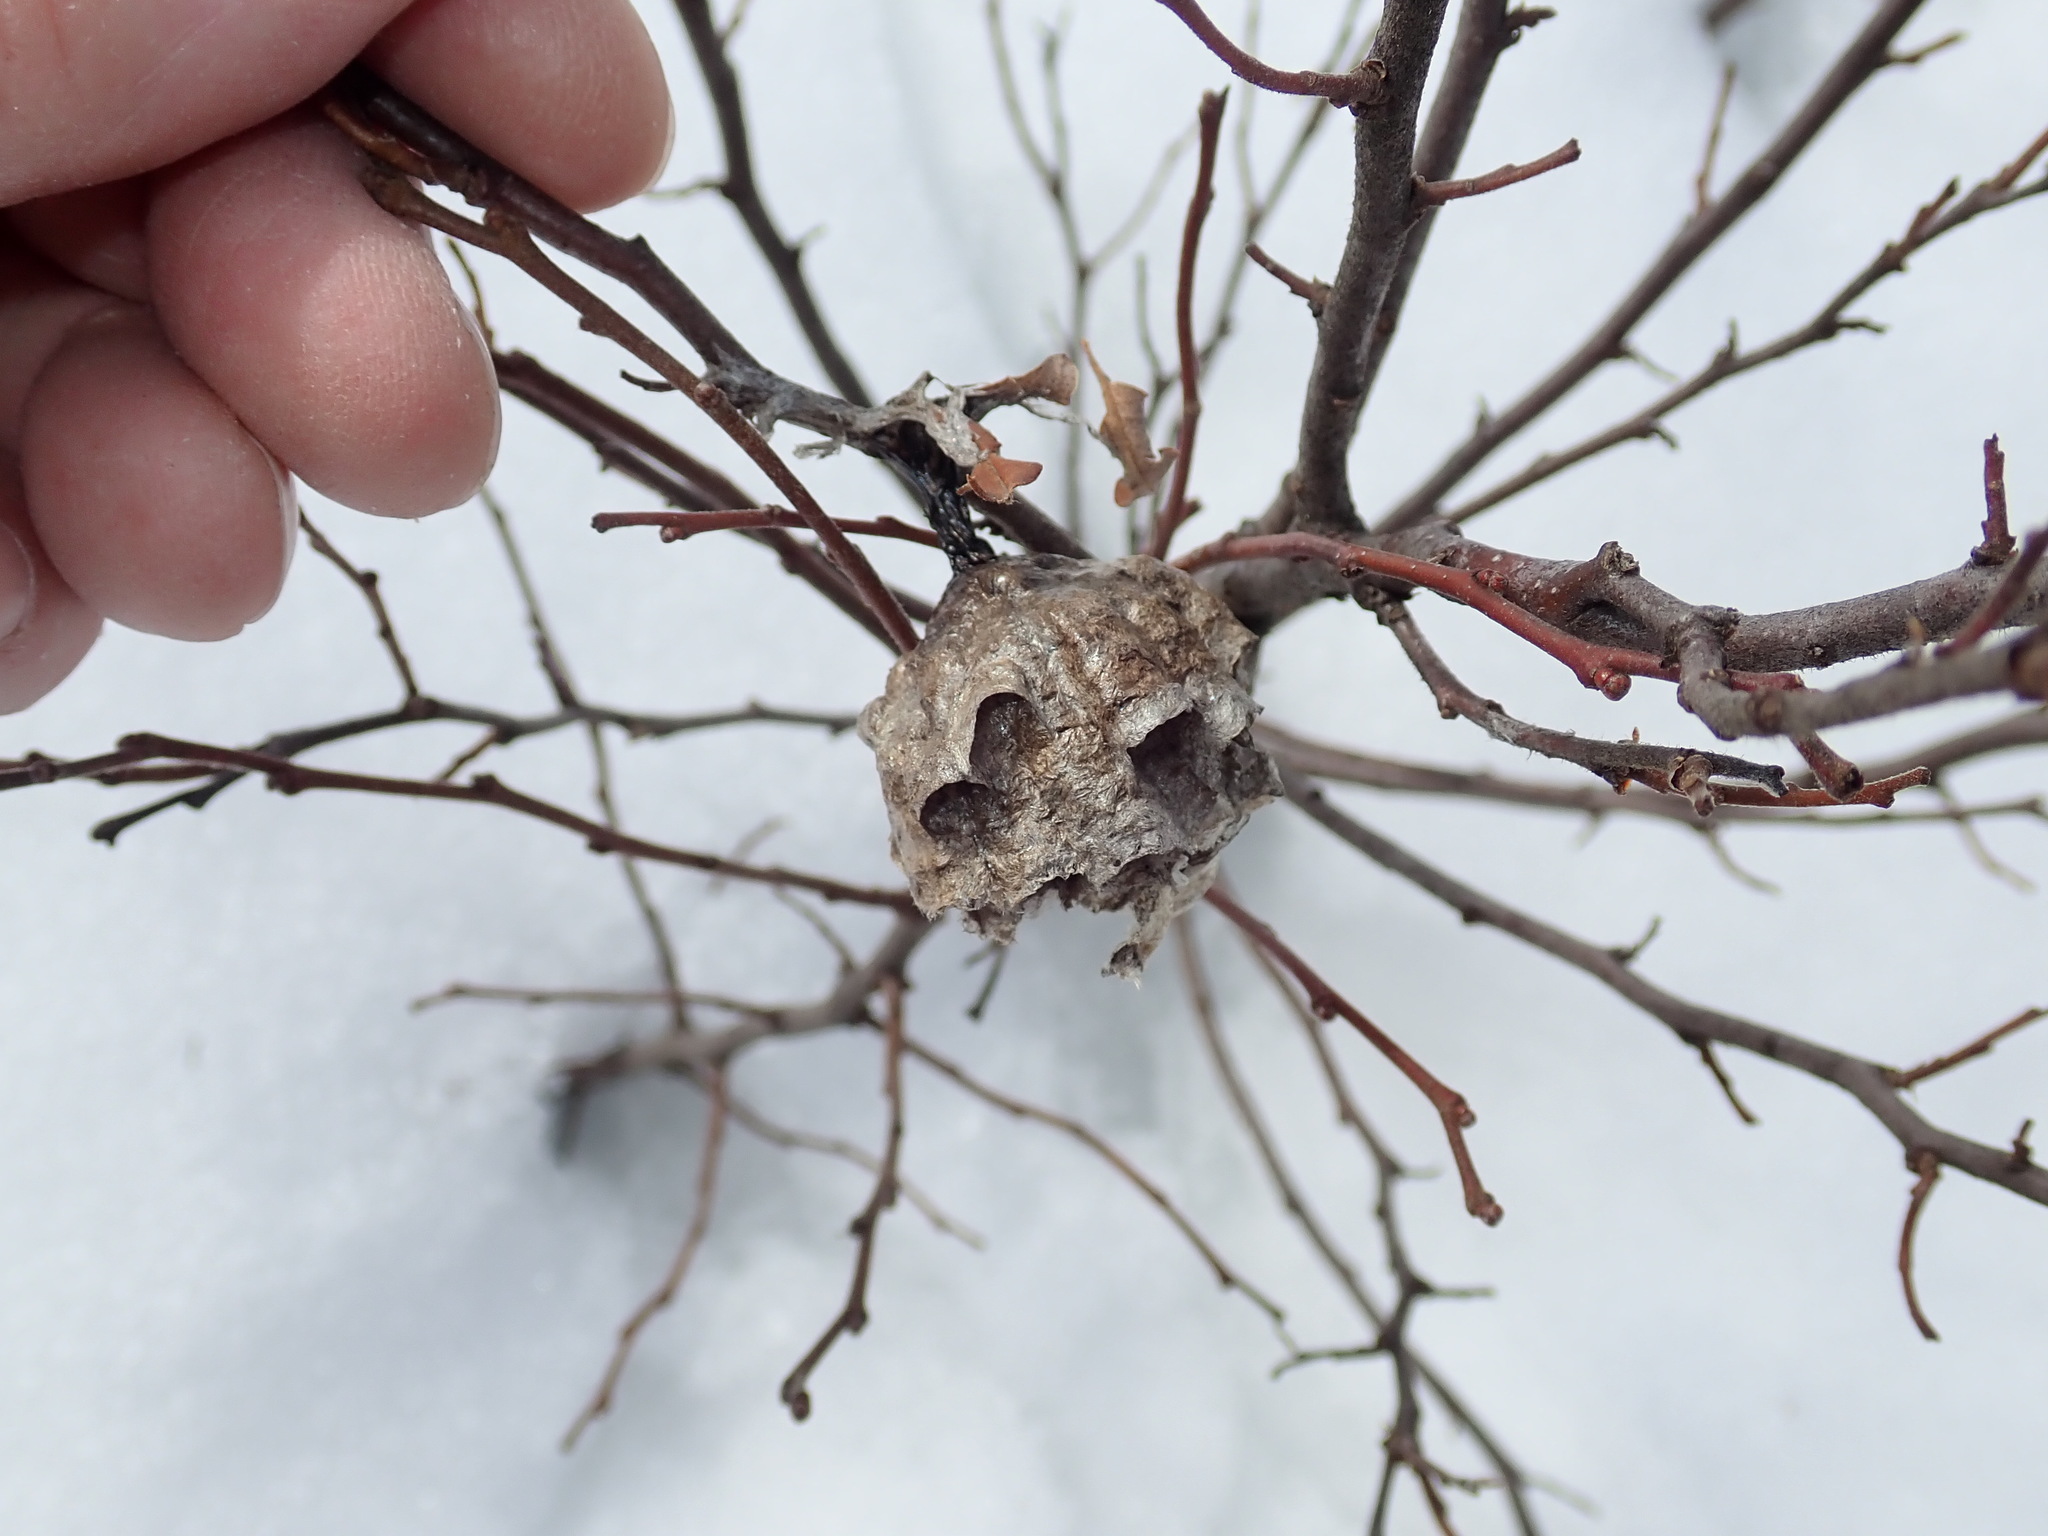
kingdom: Animalia
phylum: Arthropoda
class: Insecta
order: Hymenoptera
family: Eumenidae
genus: Polistes
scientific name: Polistes
